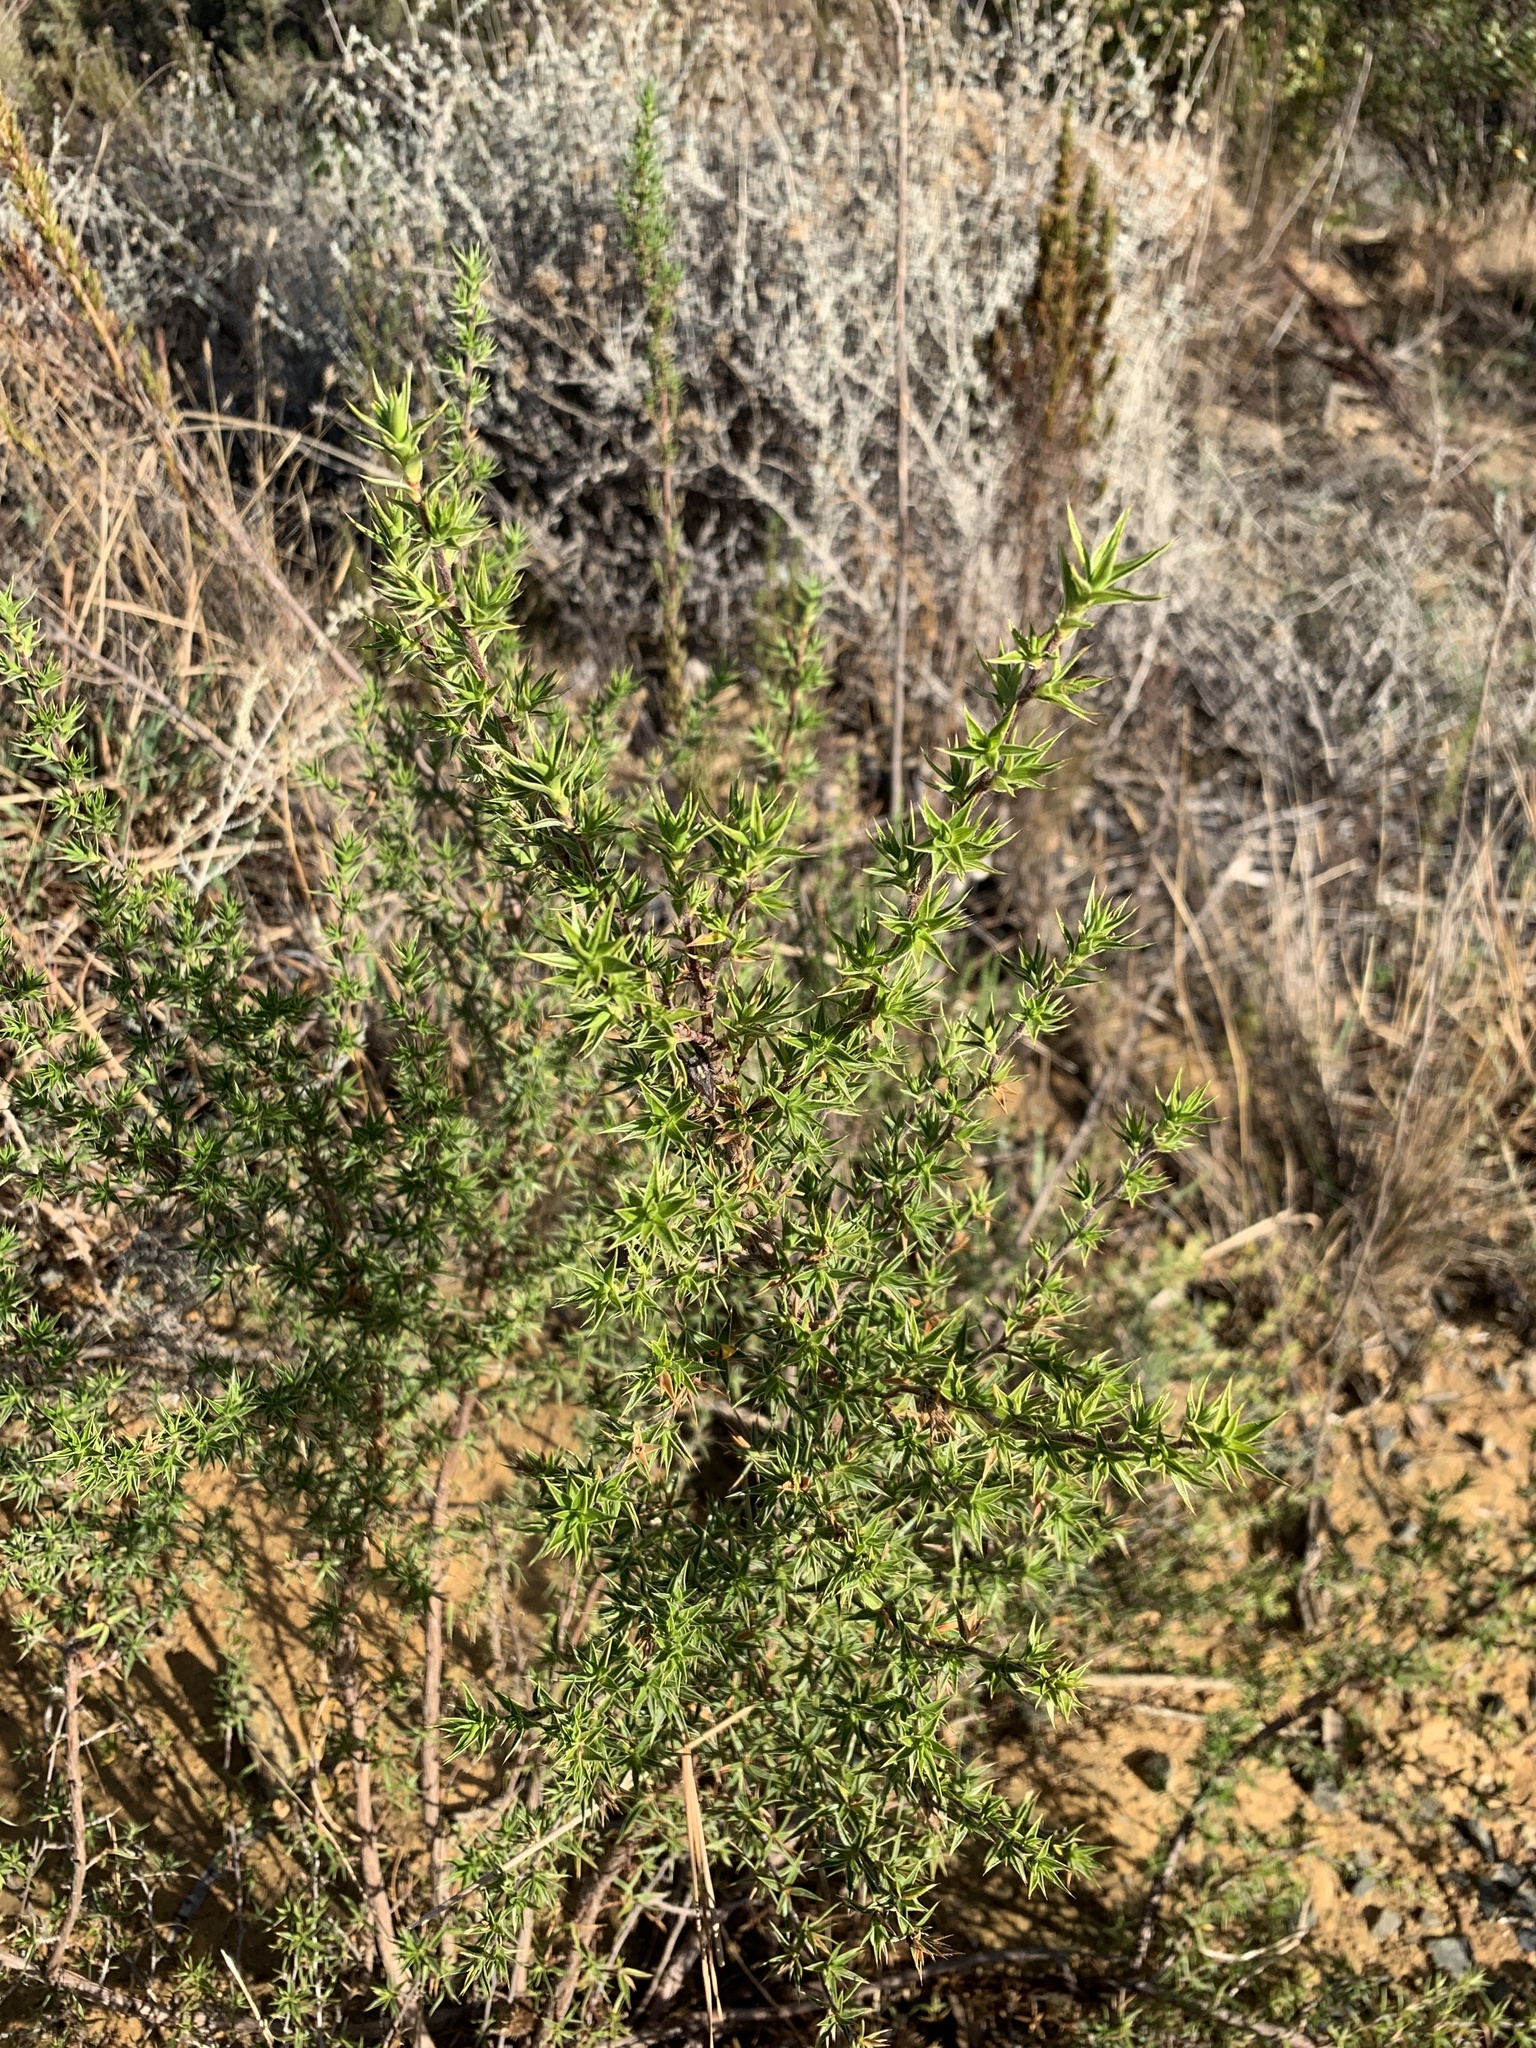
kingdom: Plantae
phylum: Tracheophyta
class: Magnoliopsida
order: Rosales
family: Rosaceae
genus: Cliffortia
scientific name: Cliffortia ruscifolia
